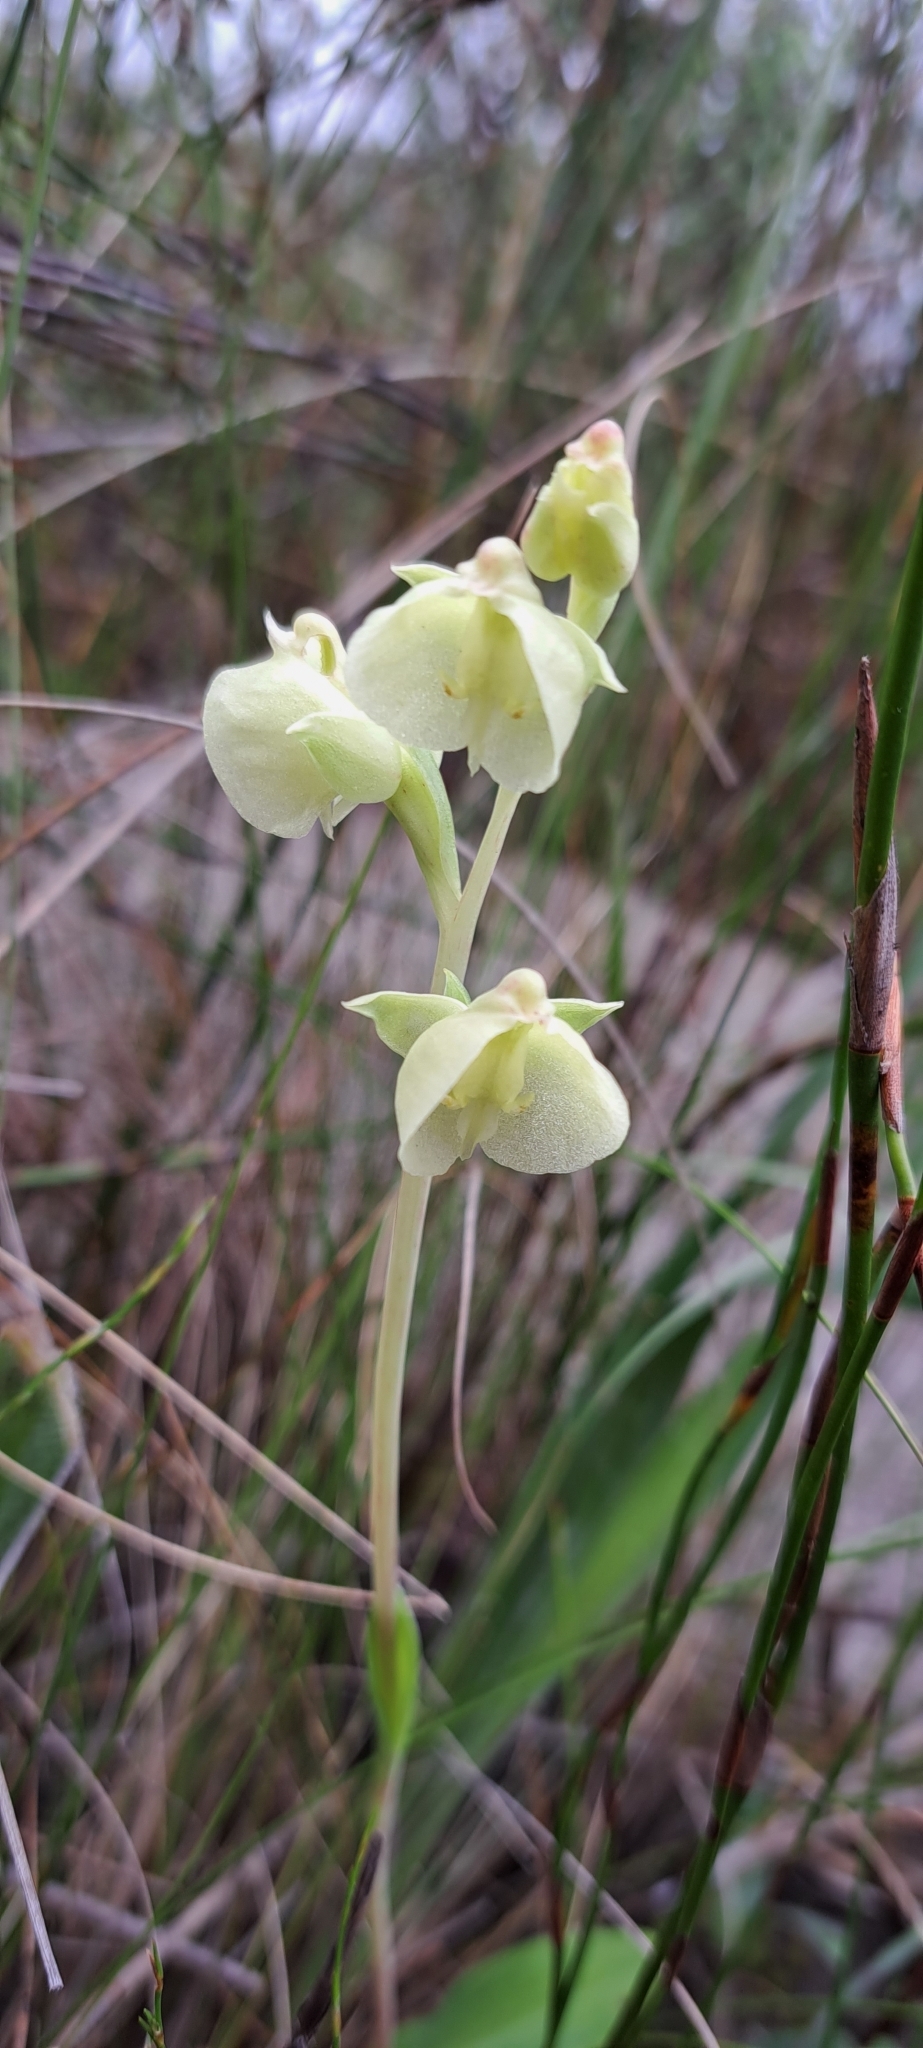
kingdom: Plantae
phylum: Tracheophyta
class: Liliopsida
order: Asparagales
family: Orchidaceae
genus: Pterygodium
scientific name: Pterygodium catholicum
